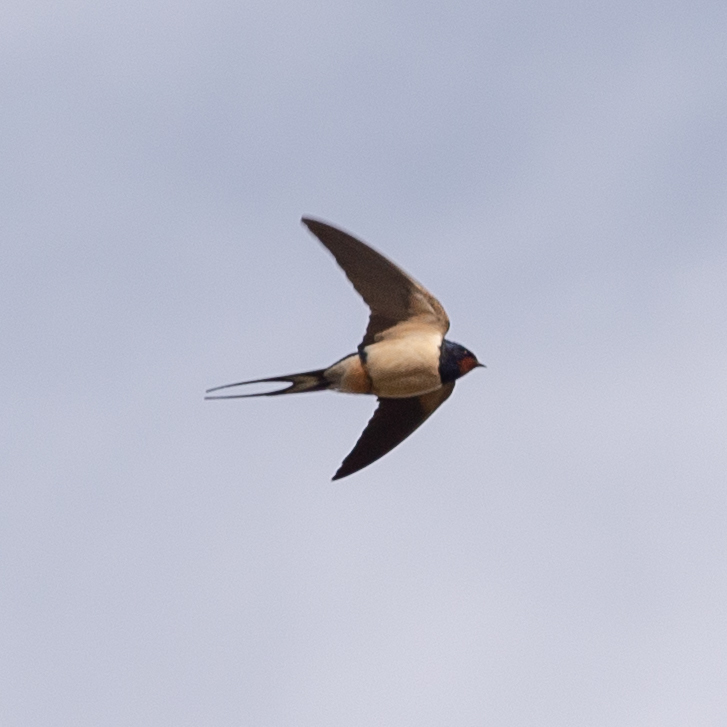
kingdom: Animalia
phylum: Chordata
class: Aves
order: Passeriformes
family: Hirundinidae
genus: Hirundo
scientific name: Hirundo rustica
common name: Barn swallow
